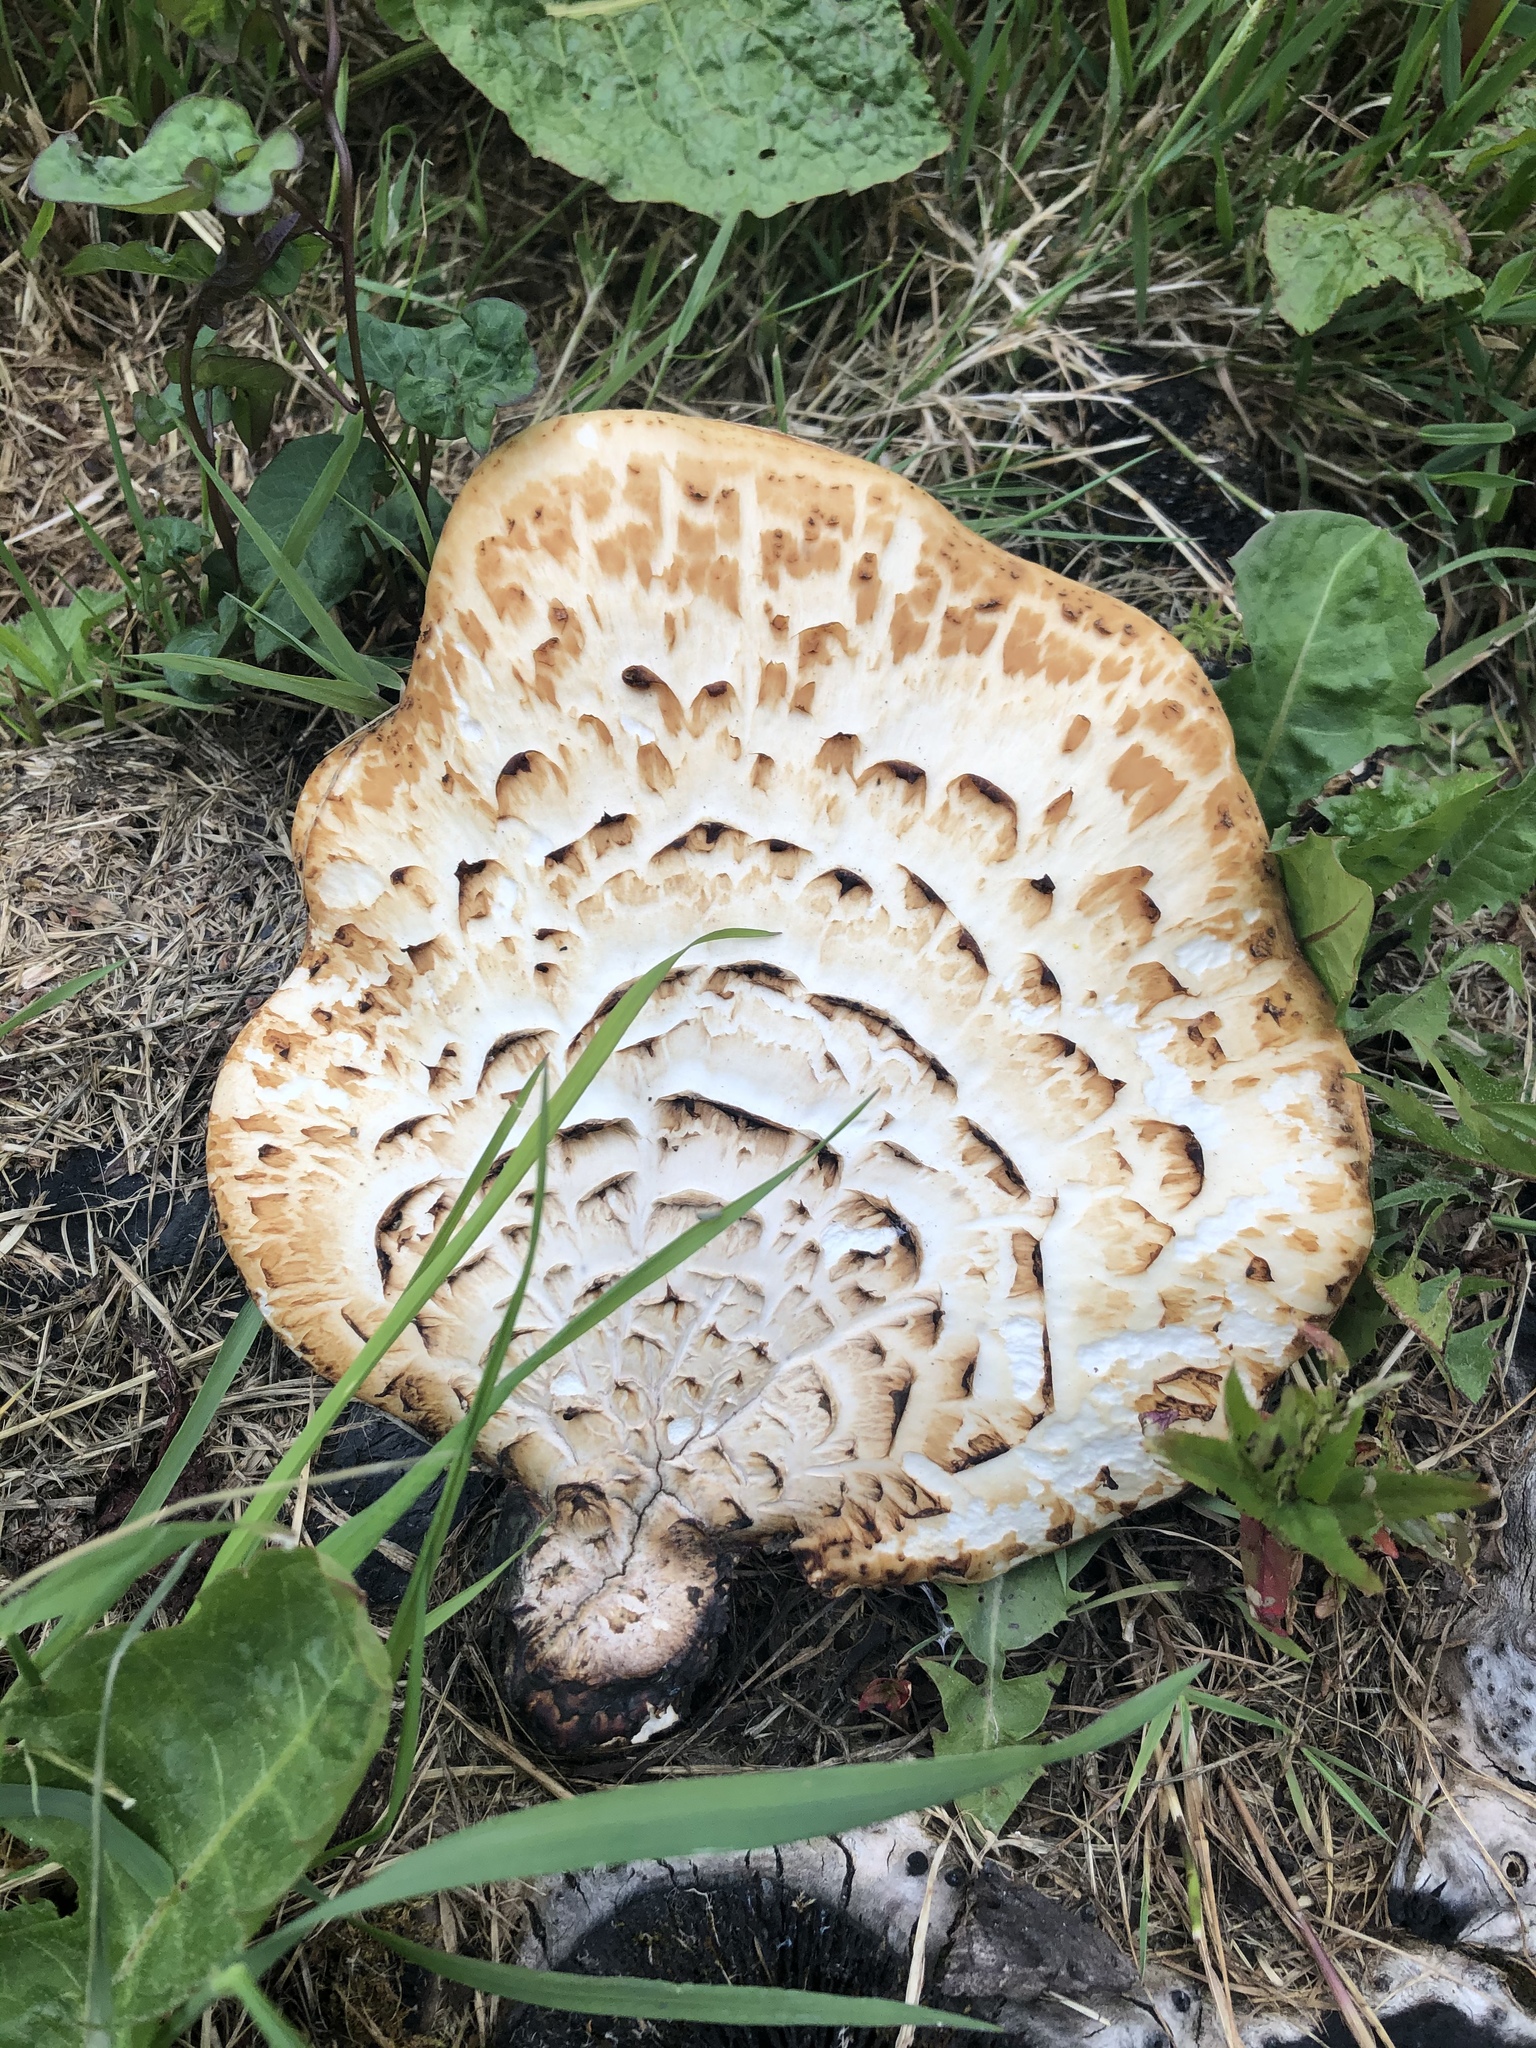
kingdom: Fungi
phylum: Basidiomycota
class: Agaricomycetes
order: Polyporales
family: Polyporaceae
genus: Cerioporus
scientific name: Cerioporus squamosus
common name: Dryad's saddle
